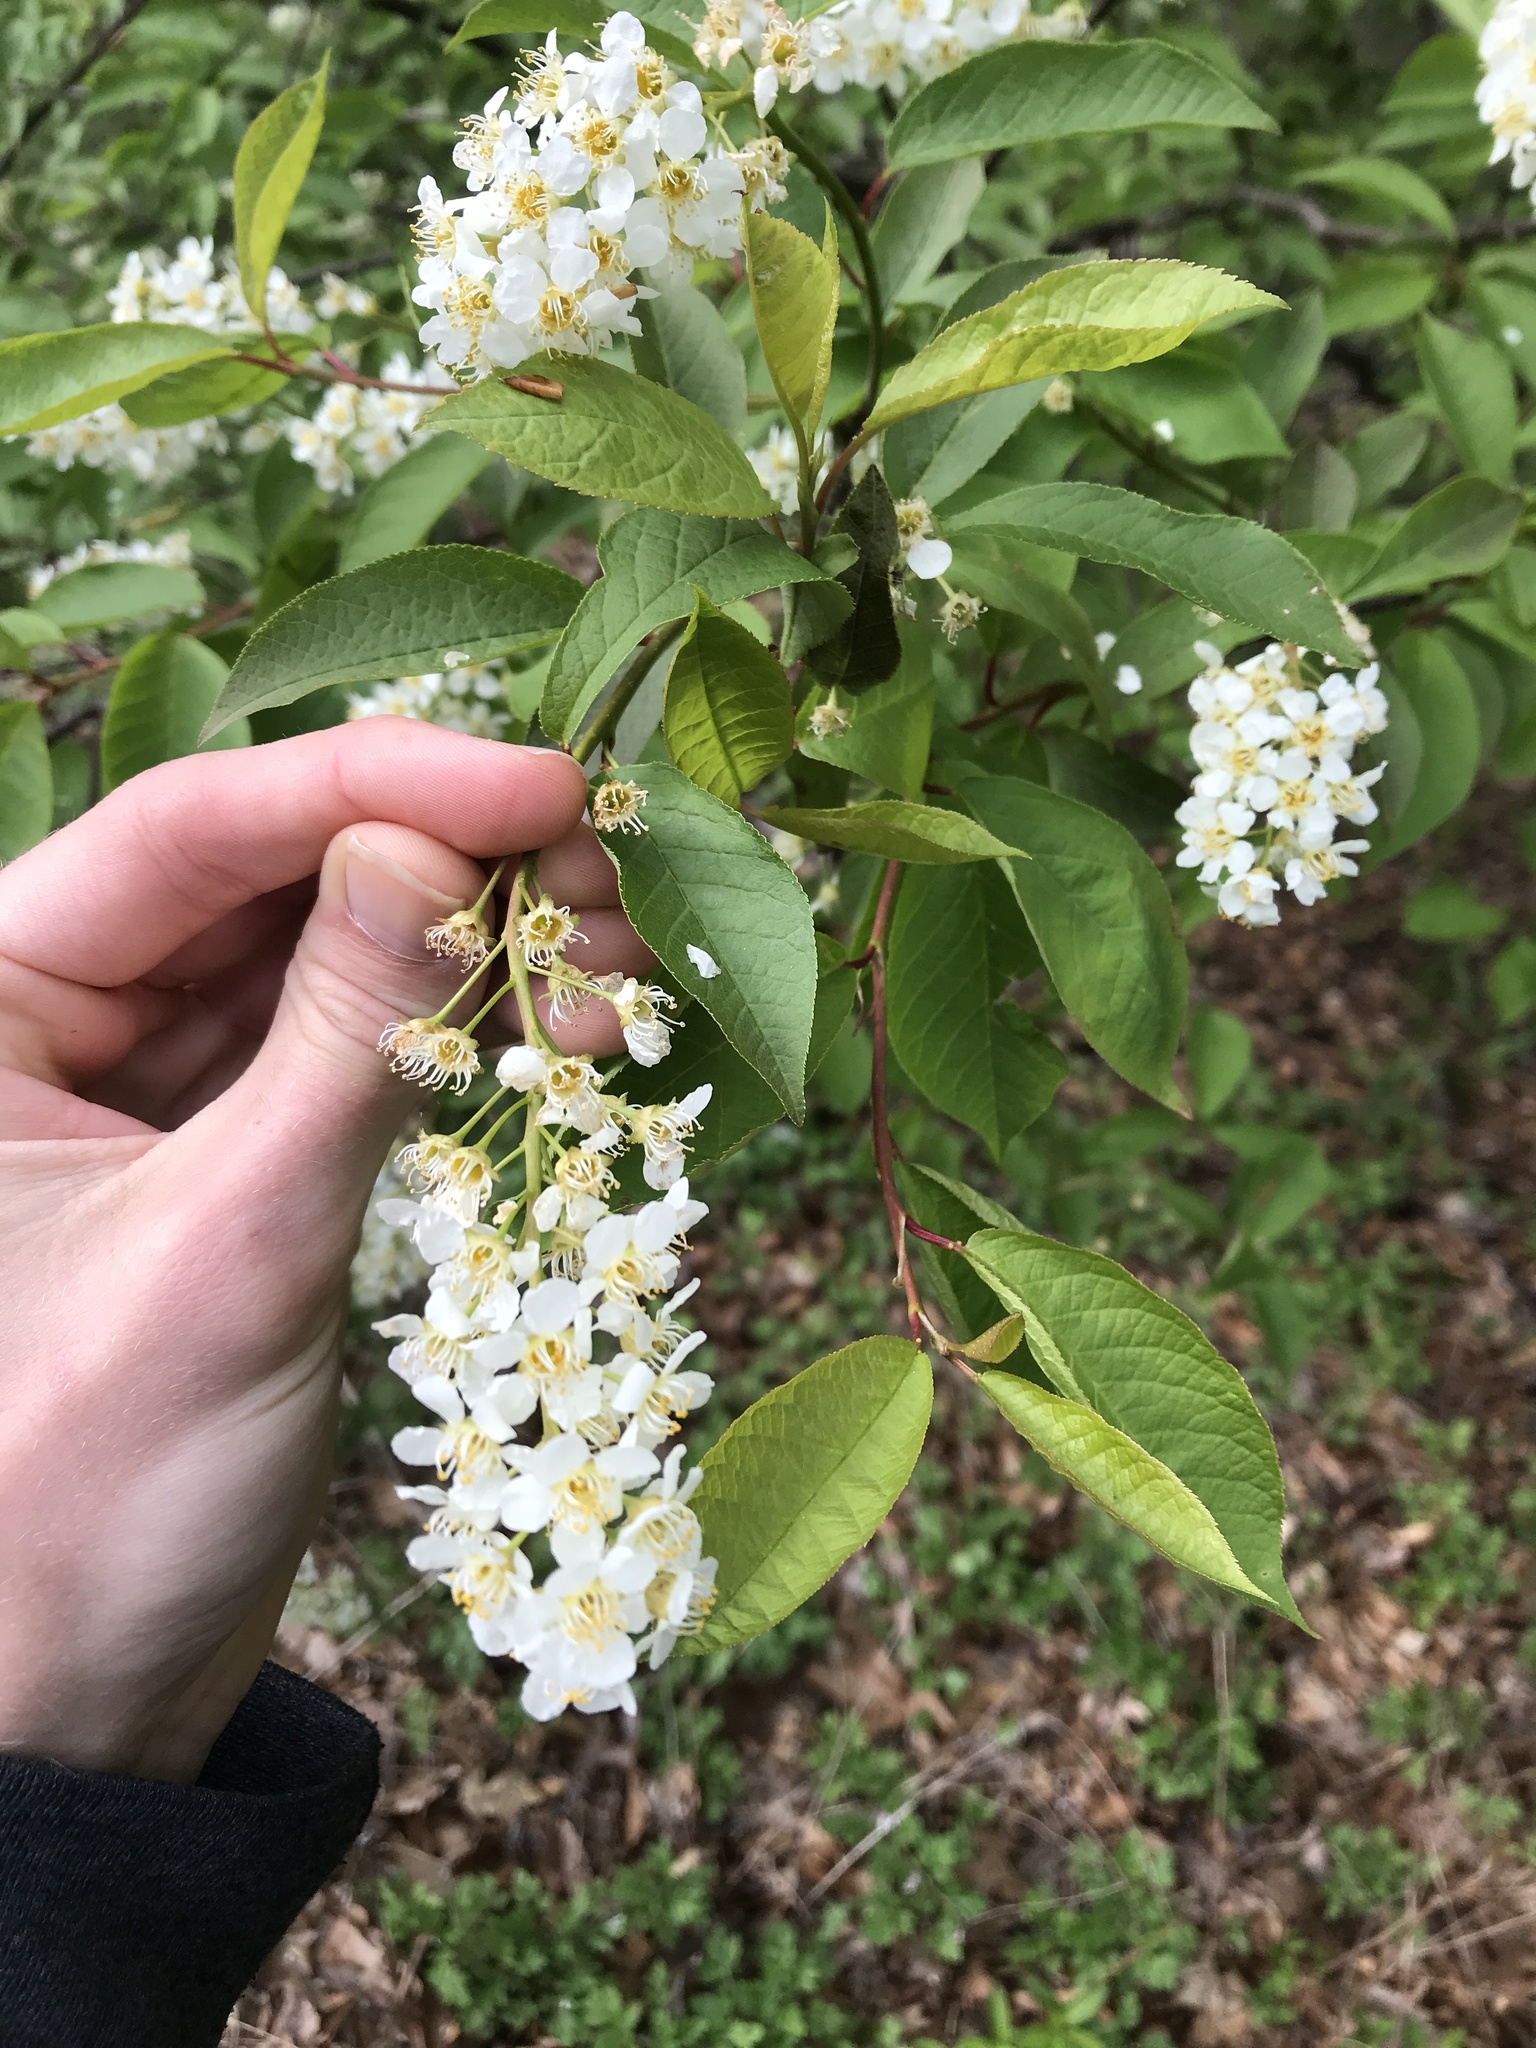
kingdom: Plantae
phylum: Tracheophyta
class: Magnoliopsida
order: Rosales
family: Rosaceae
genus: Prunus
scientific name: Prunus padus
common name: Bird cherry
